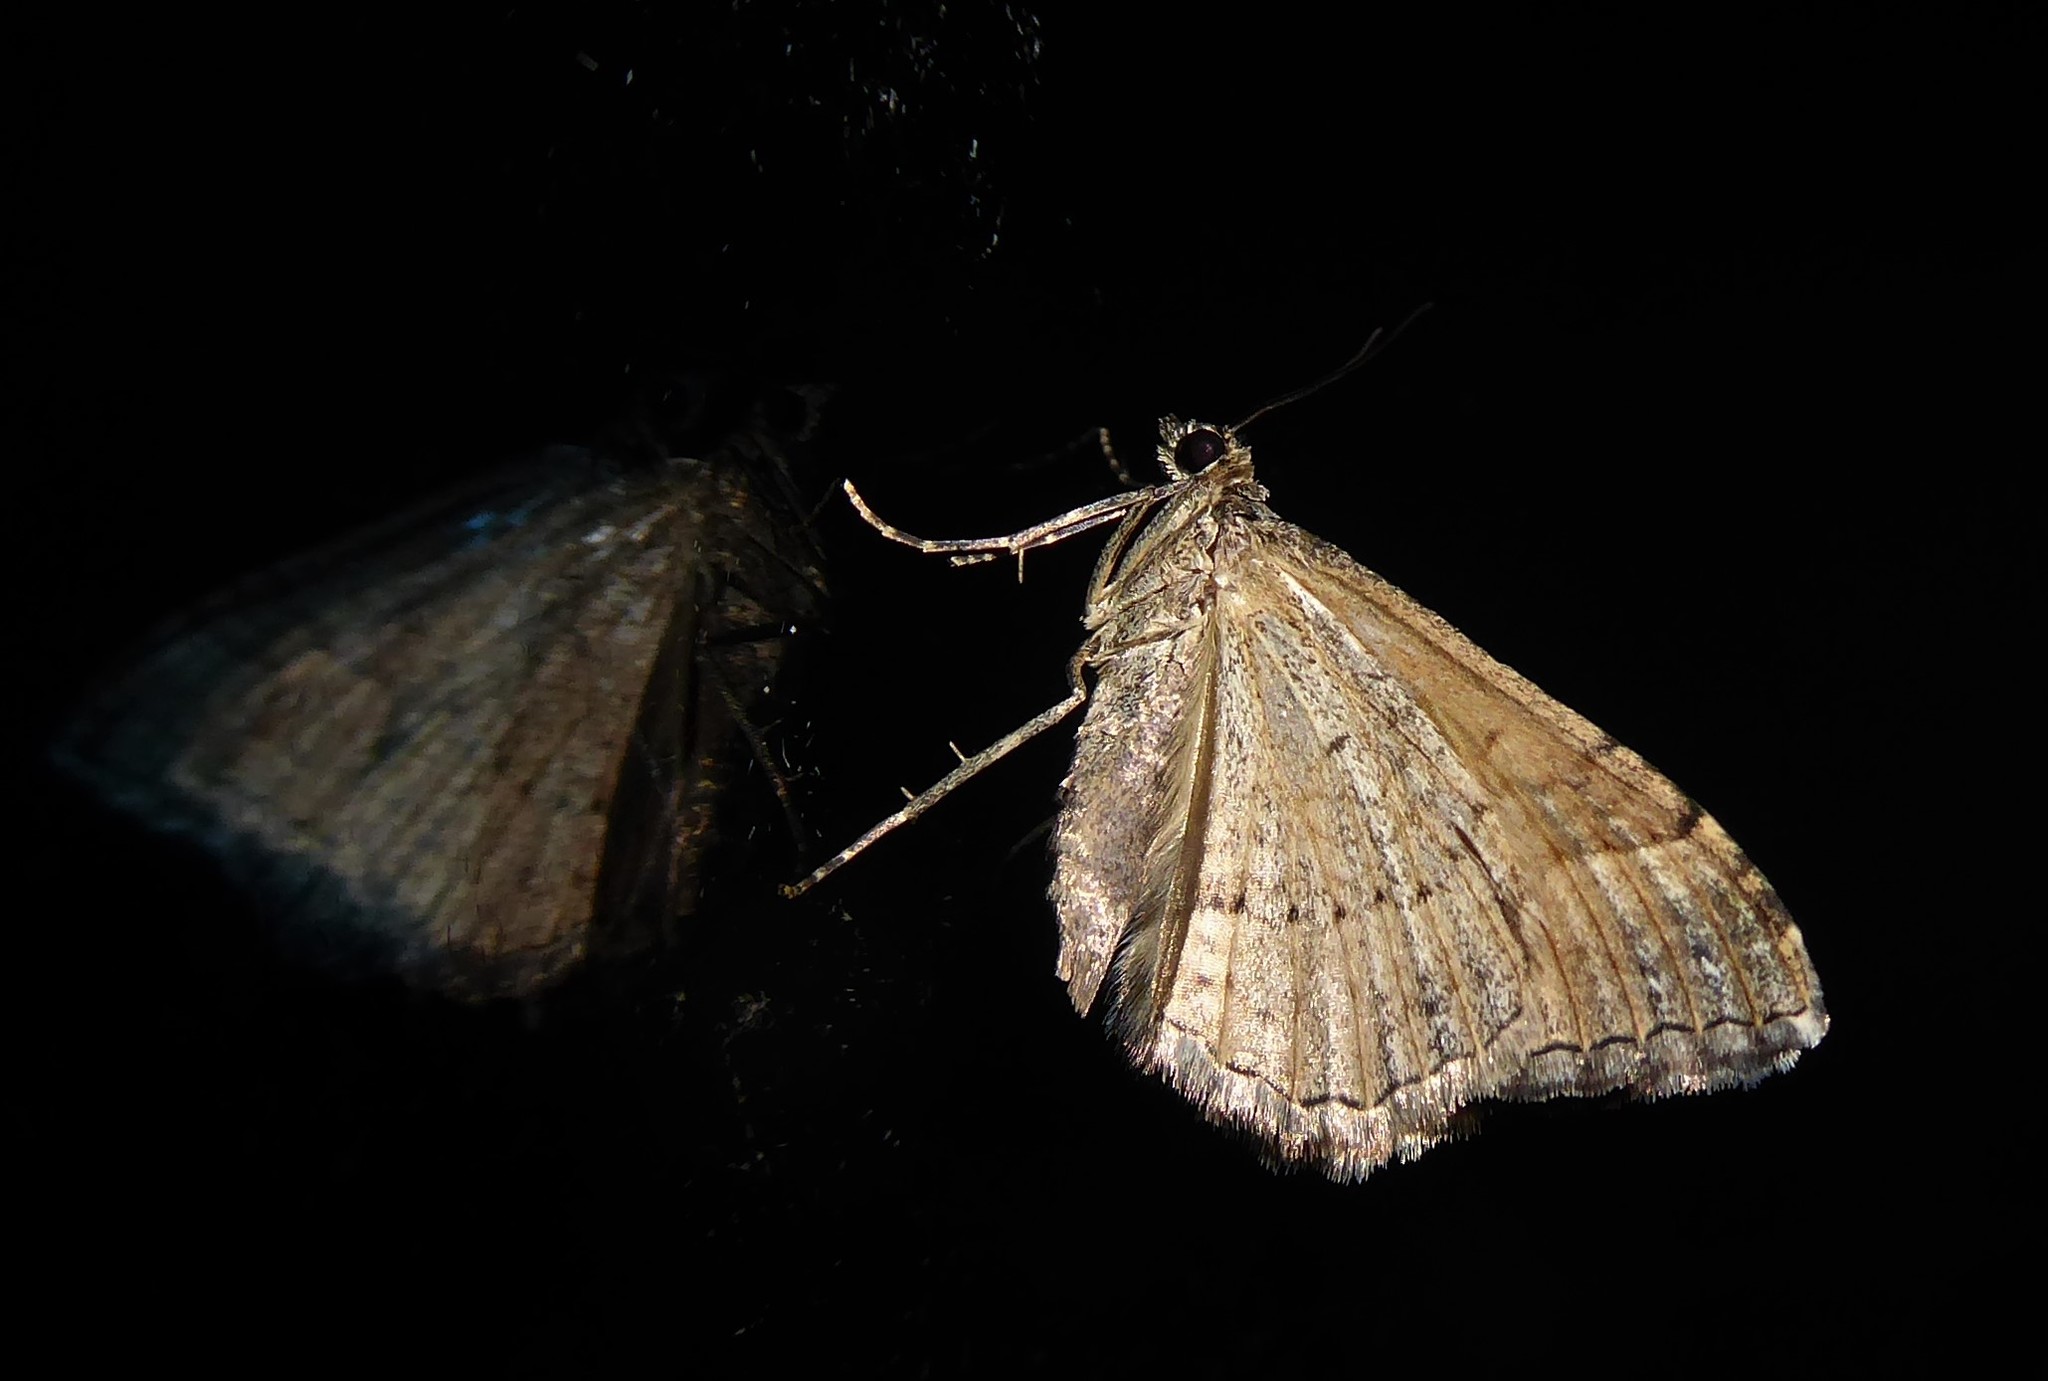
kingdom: Animalia
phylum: Arthropoda
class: Insecta
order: Lepidoptera
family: Geometridae
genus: Hydriomena
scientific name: Hydriomena deltoidata
